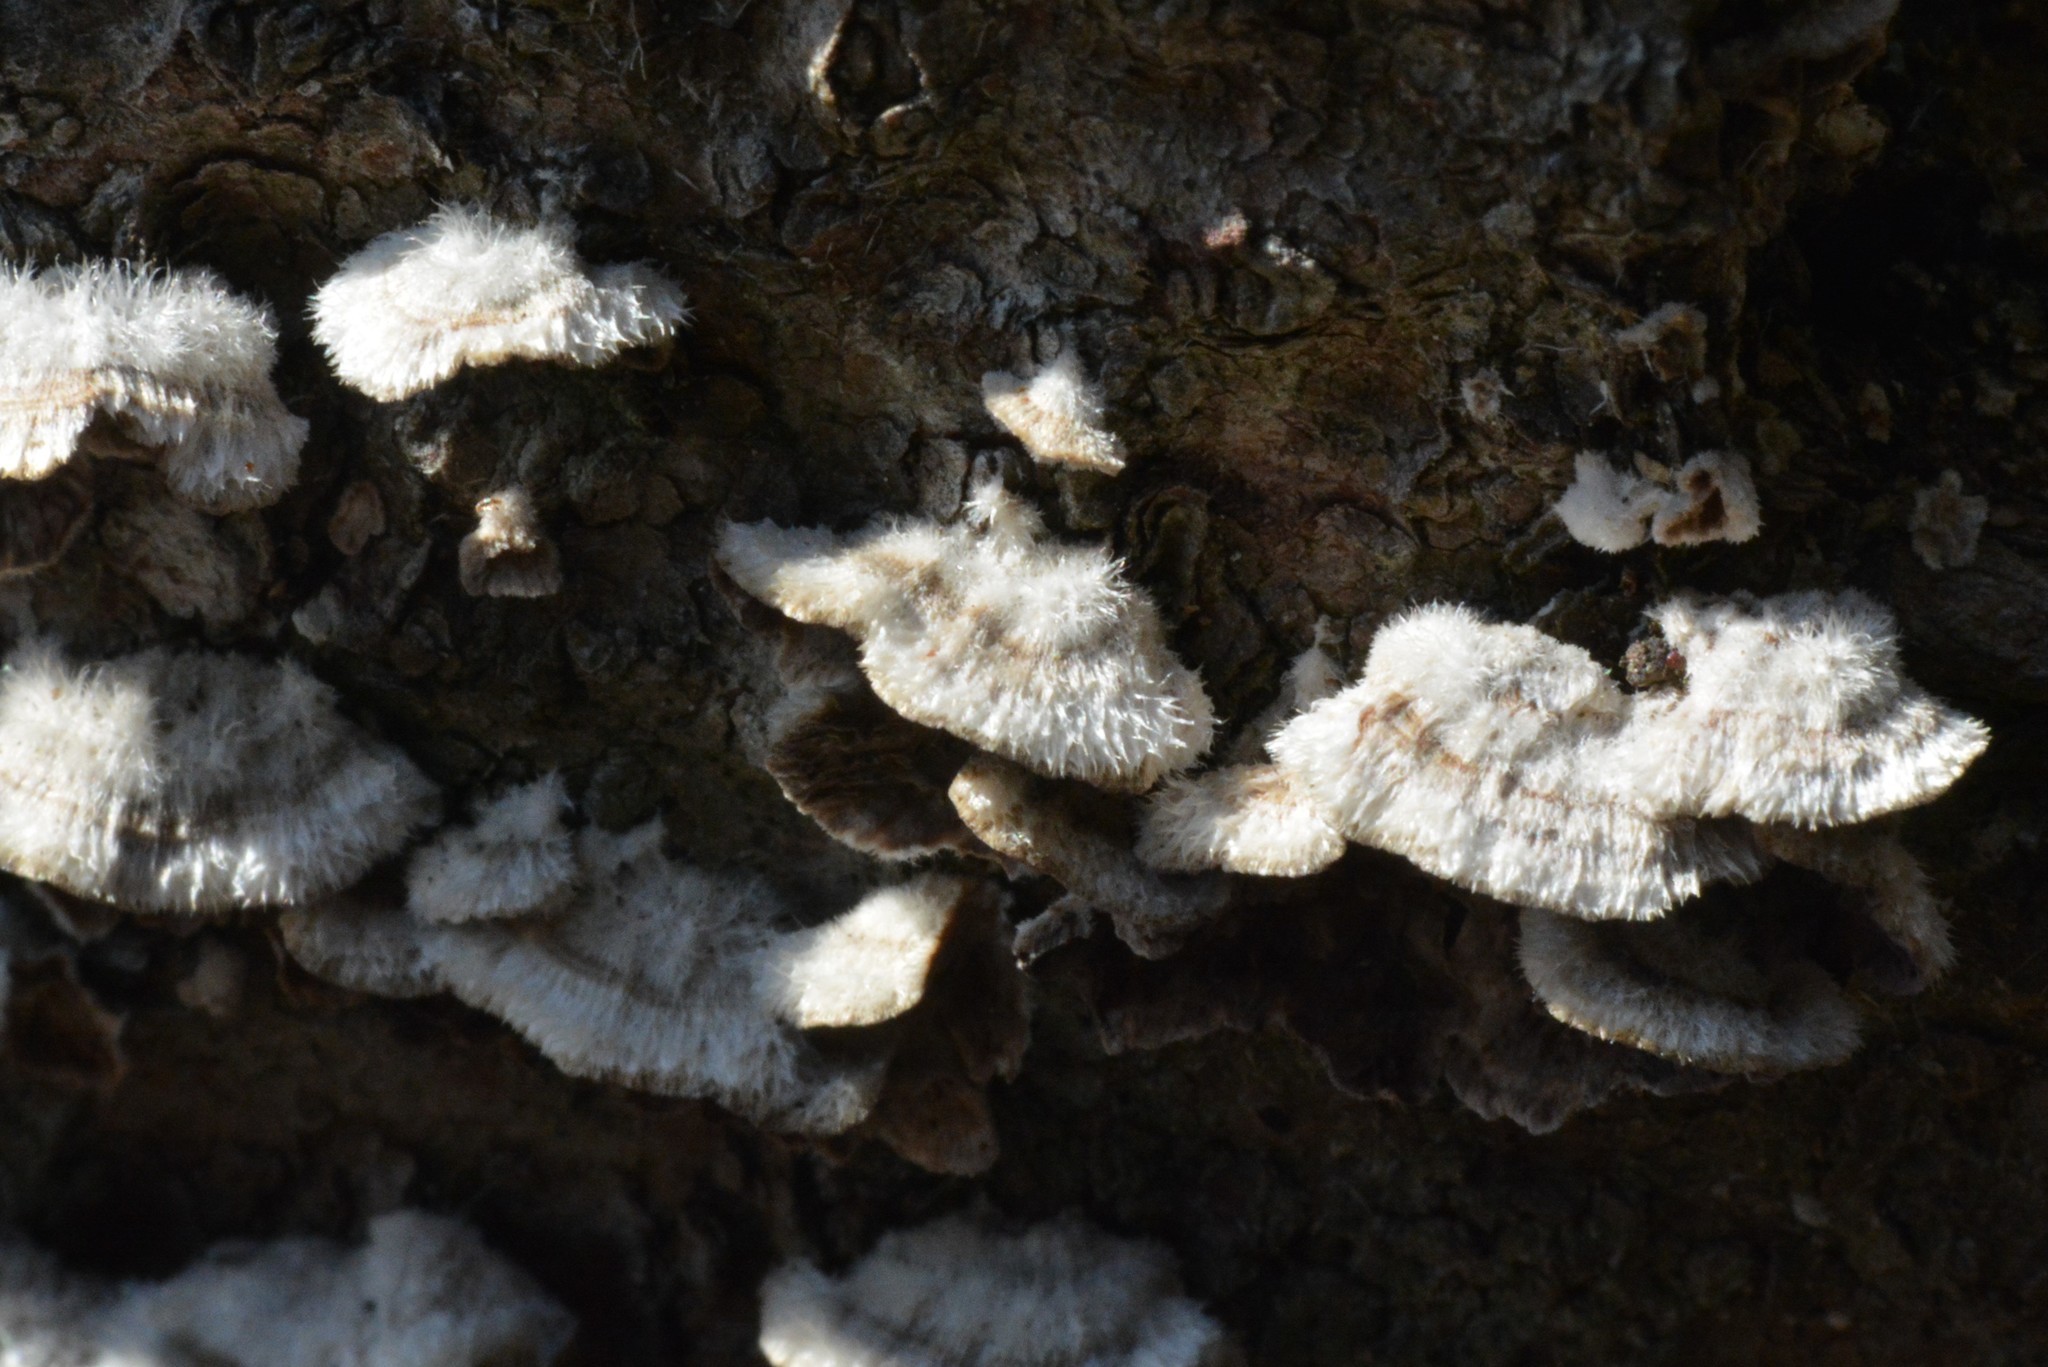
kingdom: Fungi
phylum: Basidiomycota
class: Agaricomycetes
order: Agaricales
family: Schizophyllaceae
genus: Schizophyllum
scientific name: Schizophyllum commune
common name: Common porecrust
